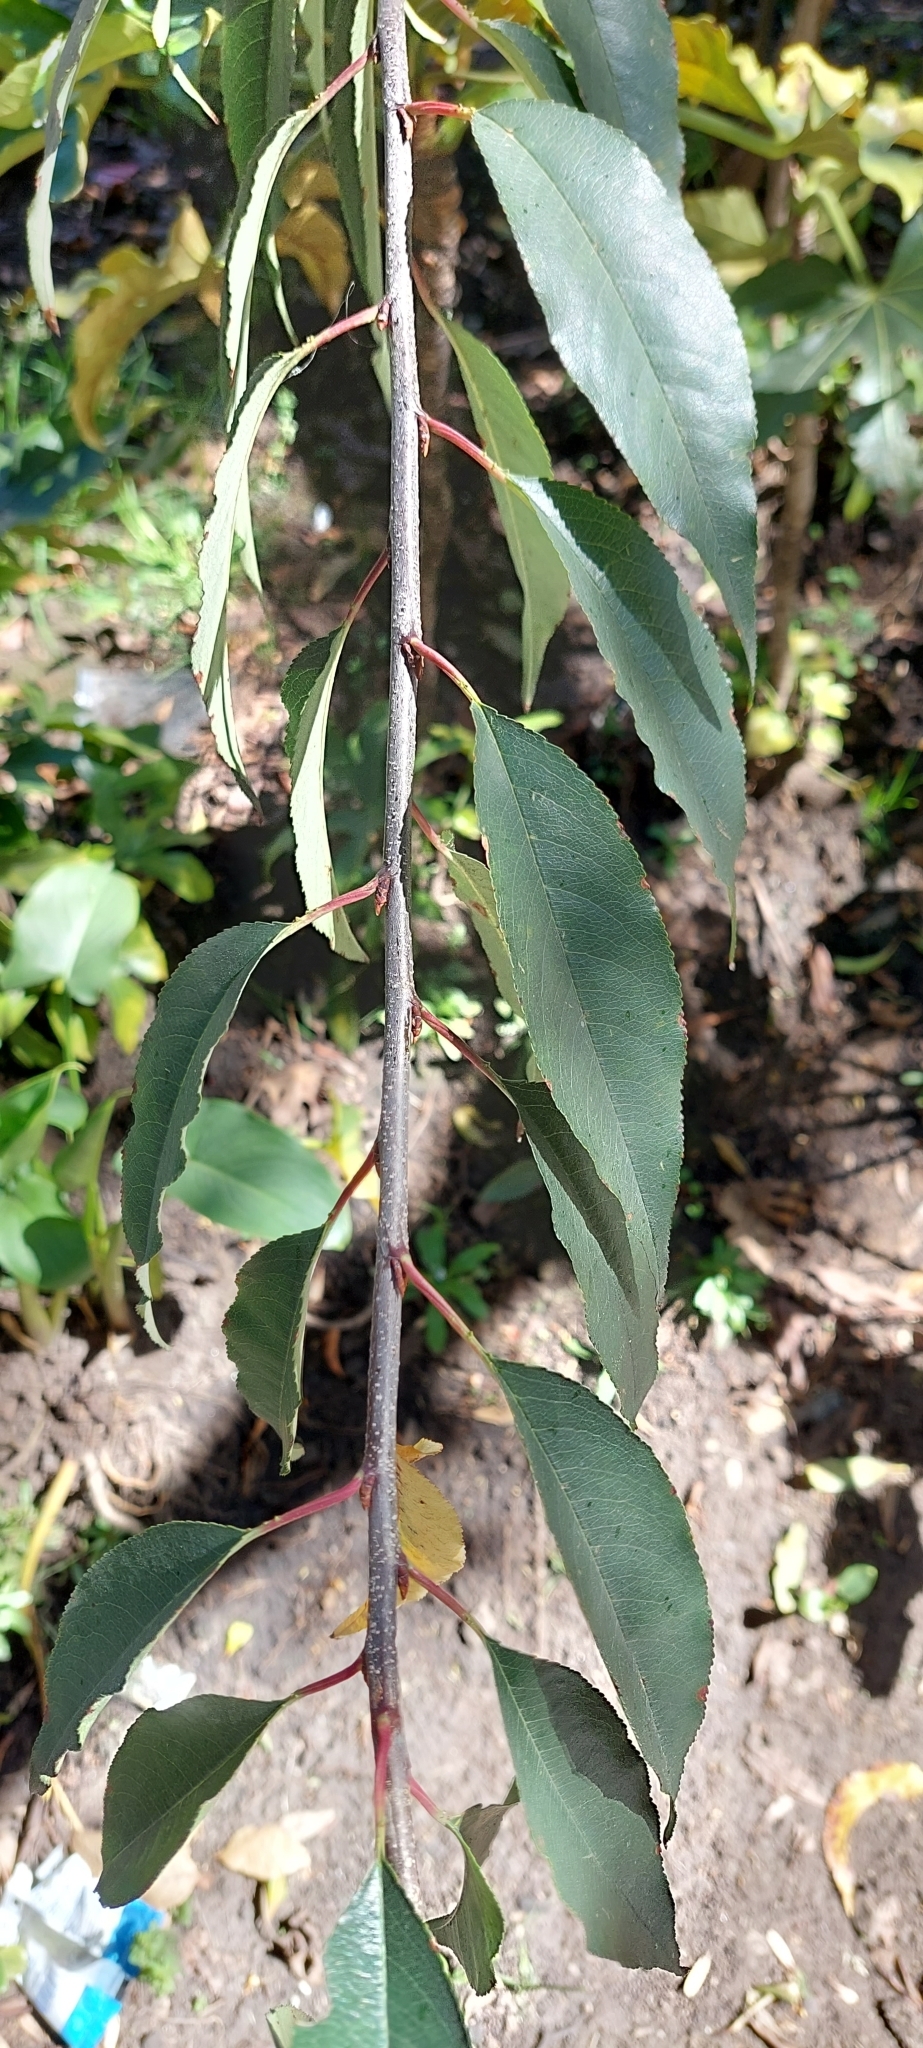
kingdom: Plantae
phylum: Tracheophyta
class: Magnoliopsida
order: Rosales
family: Rosaceae
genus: Prunus
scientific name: Prunus serotina
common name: Black cherry
